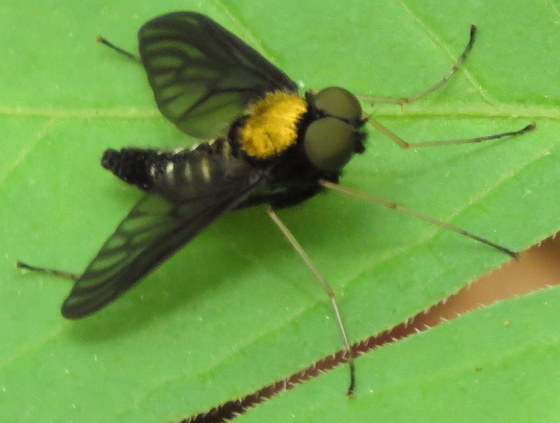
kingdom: Animalia
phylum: Arthropoda
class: Insecta
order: Diptera
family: Rhagionidae
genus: Chrysopilus
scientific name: Chrysopilus thoracicus
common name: Golden-backed snipe fly
